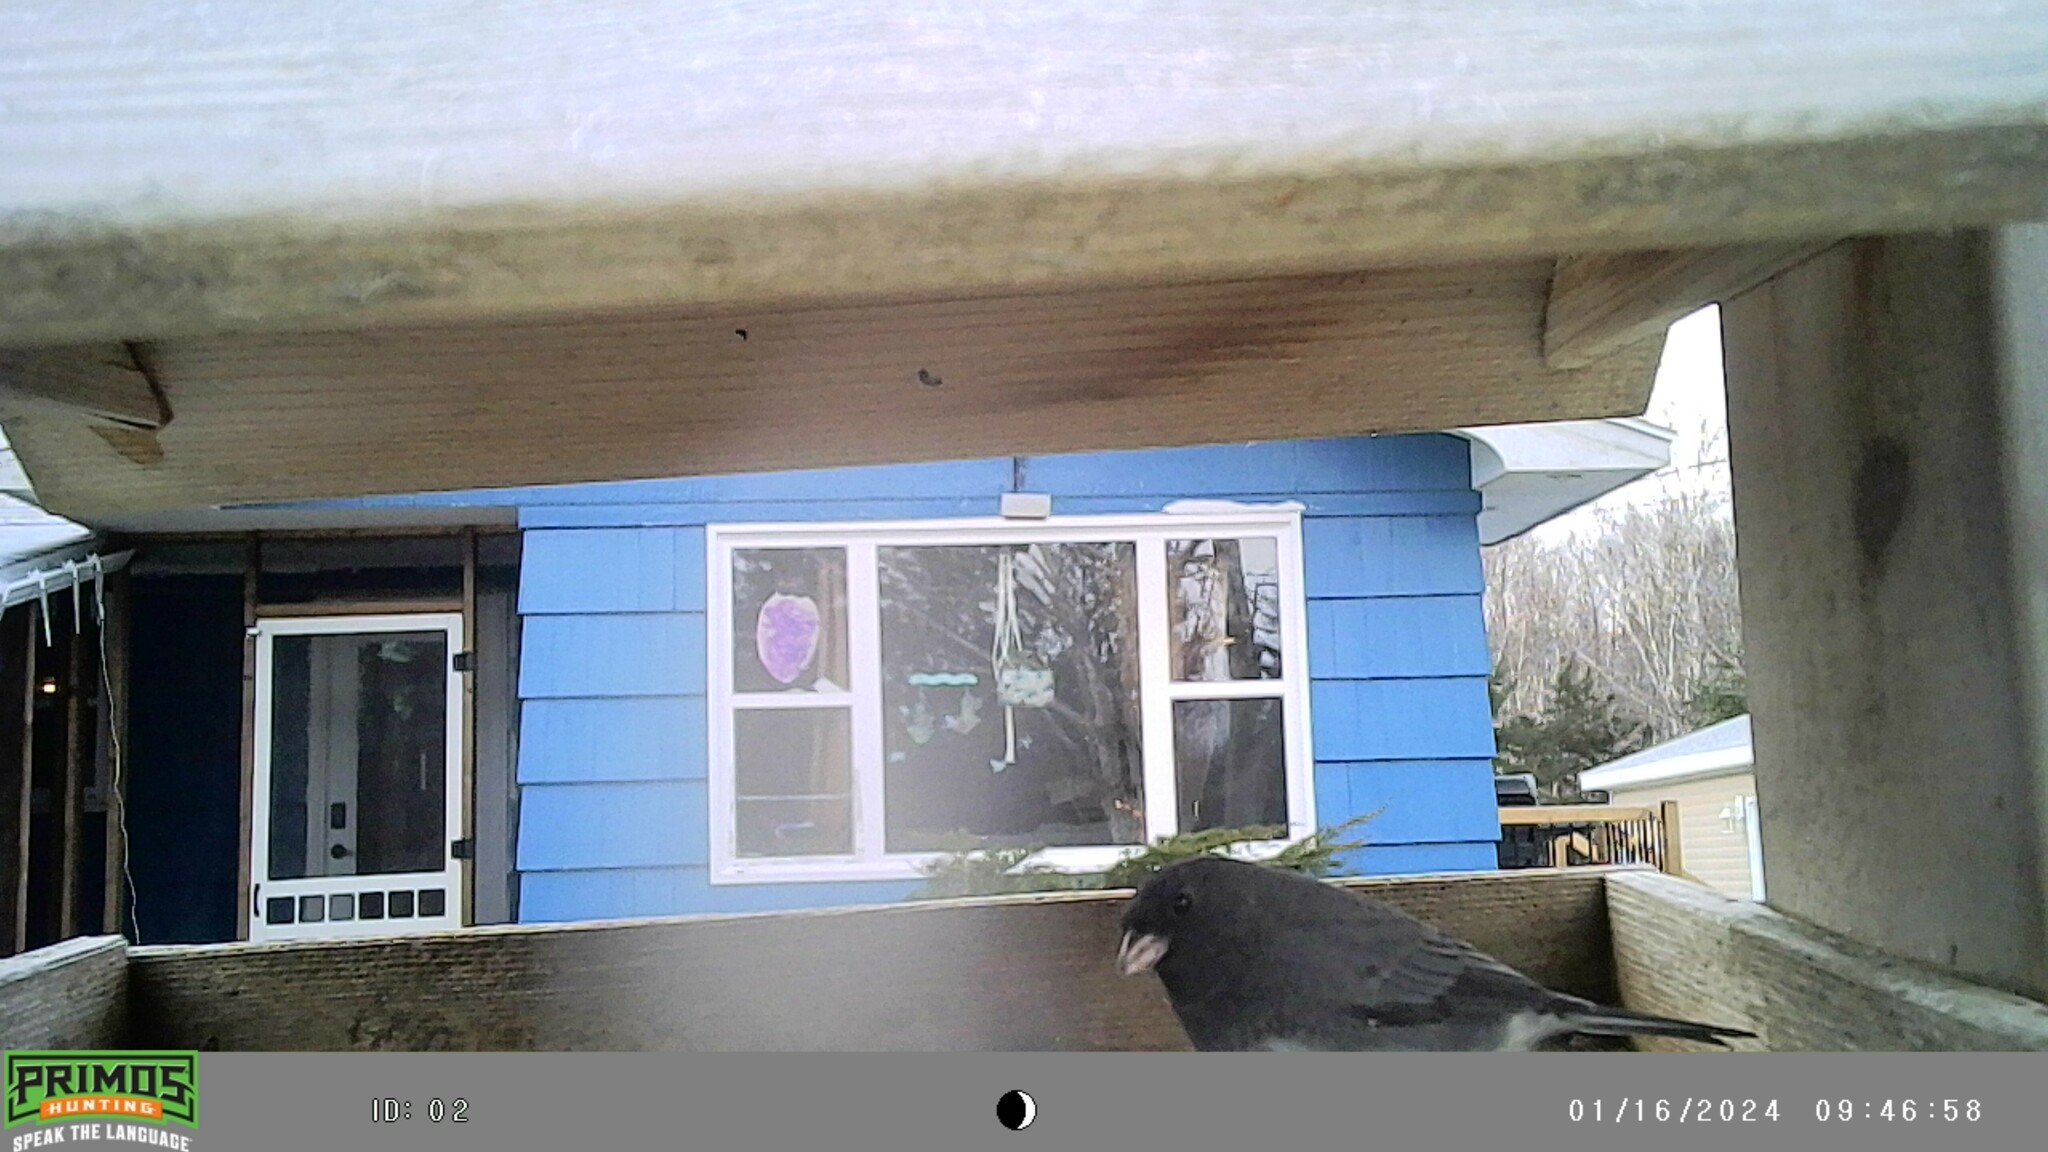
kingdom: Animalia
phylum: Chordata
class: Aves
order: Passeriformes
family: Passerellidae
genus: Junco
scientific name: Junco hyemalis
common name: Dark-eyed junco
